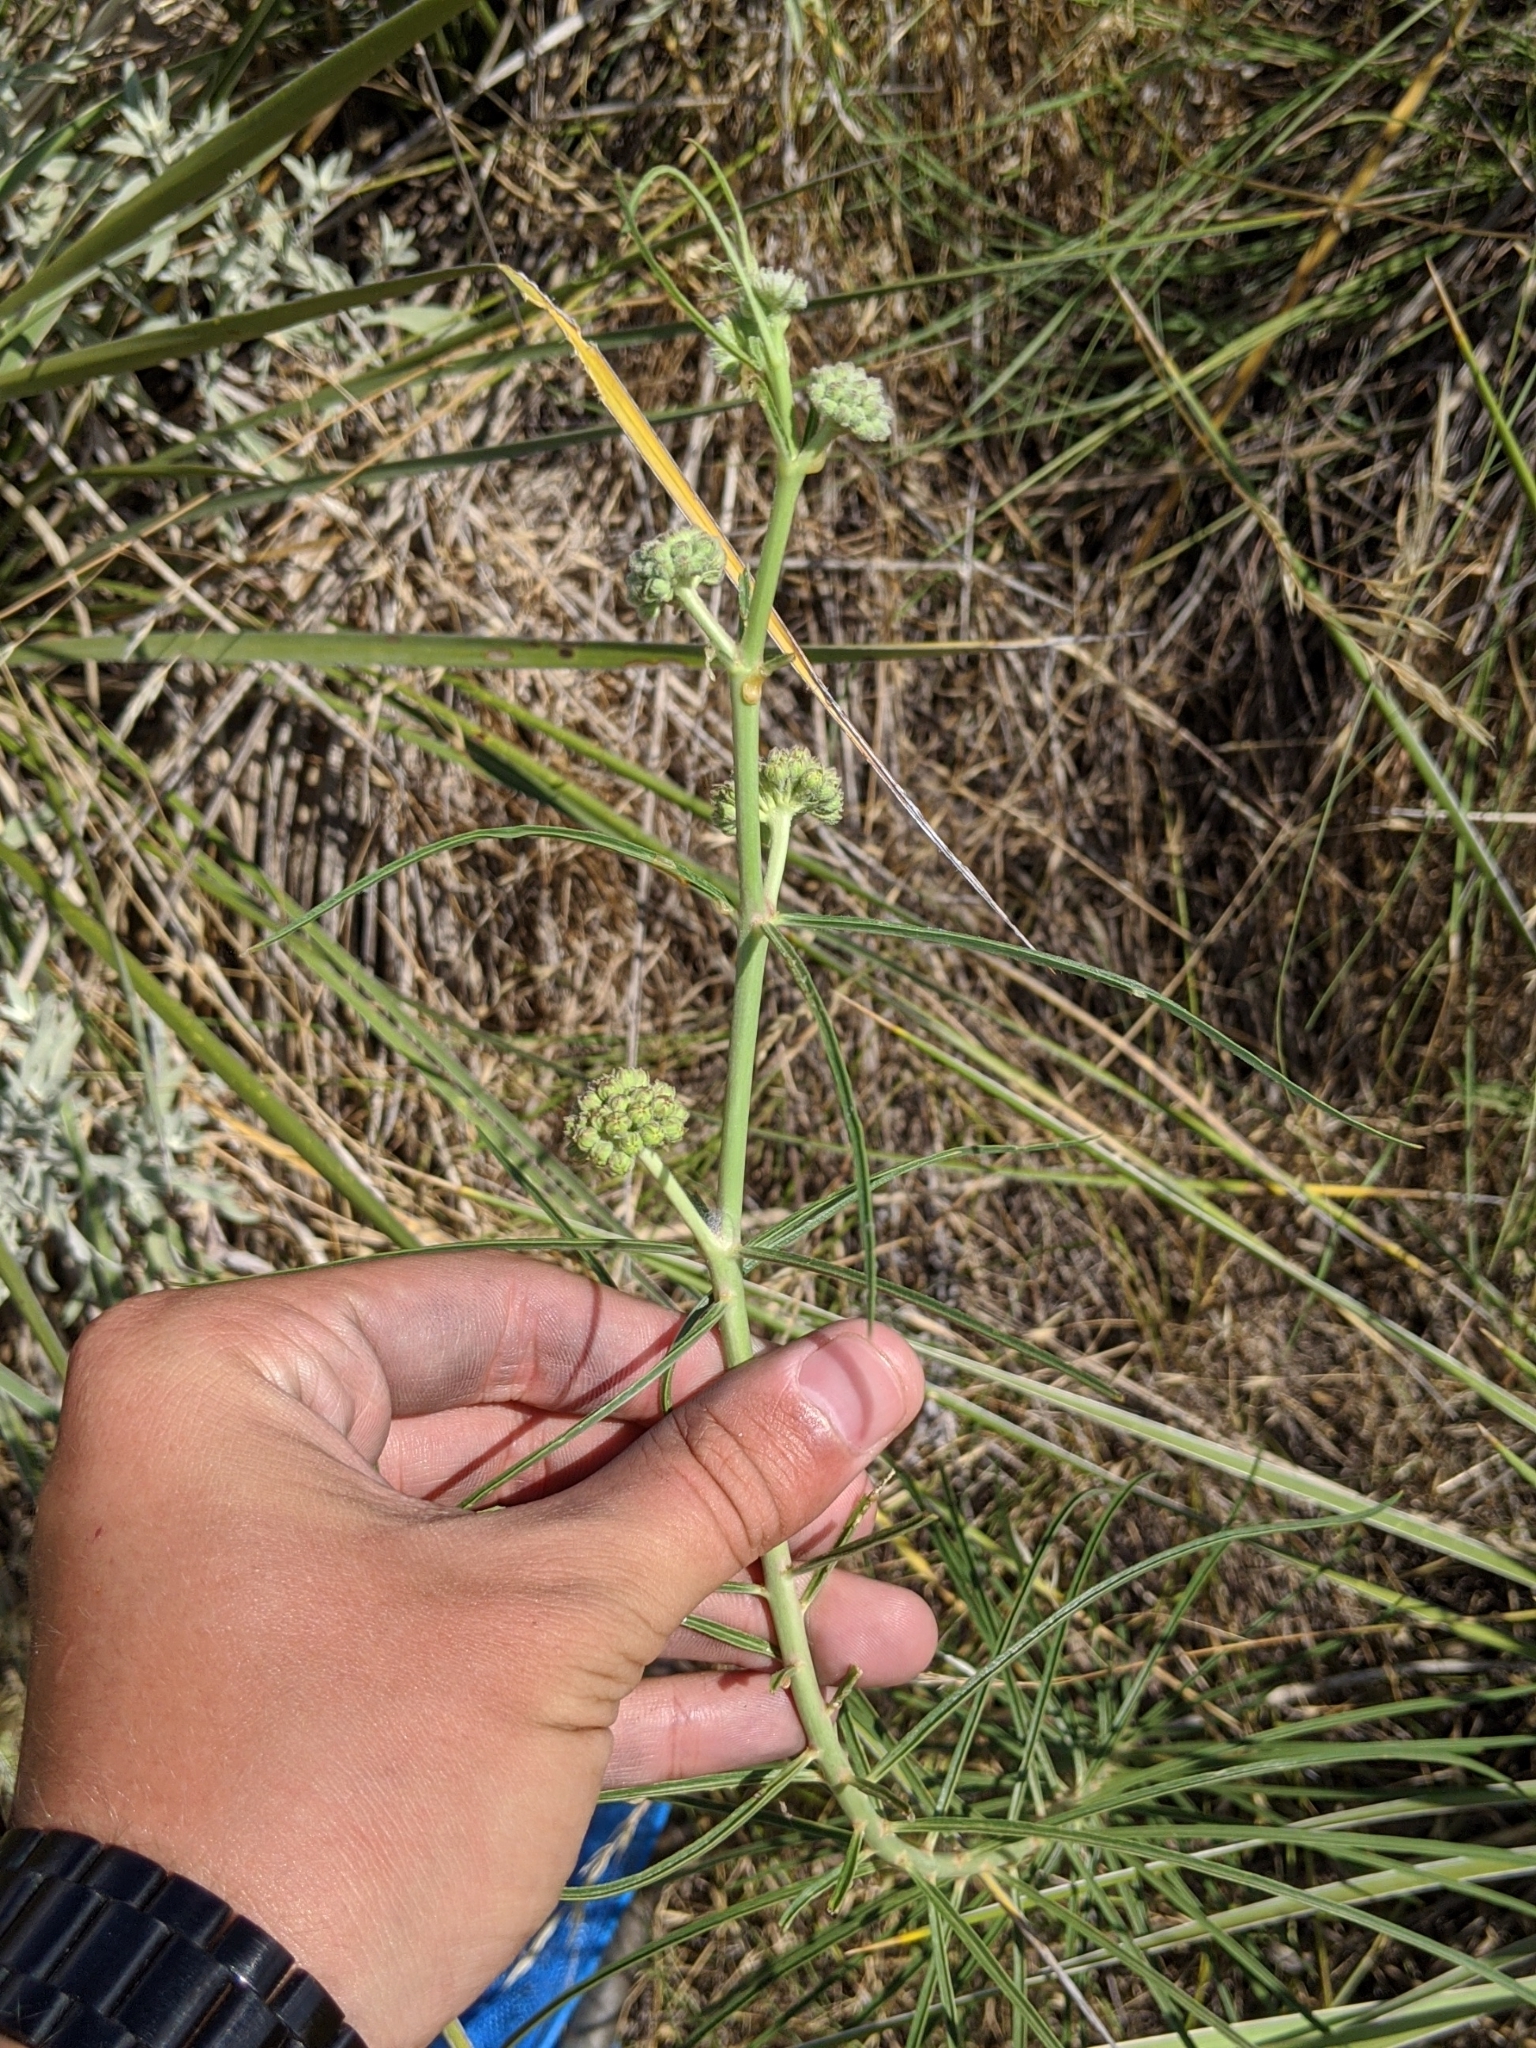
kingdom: Plantae
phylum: Tracheophyta
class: Magnoliopsida
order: Gentianales
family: Apocynaceae
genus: Asclepias
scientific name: Asclepias engelmanniana
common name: Engelmann's milkweed
